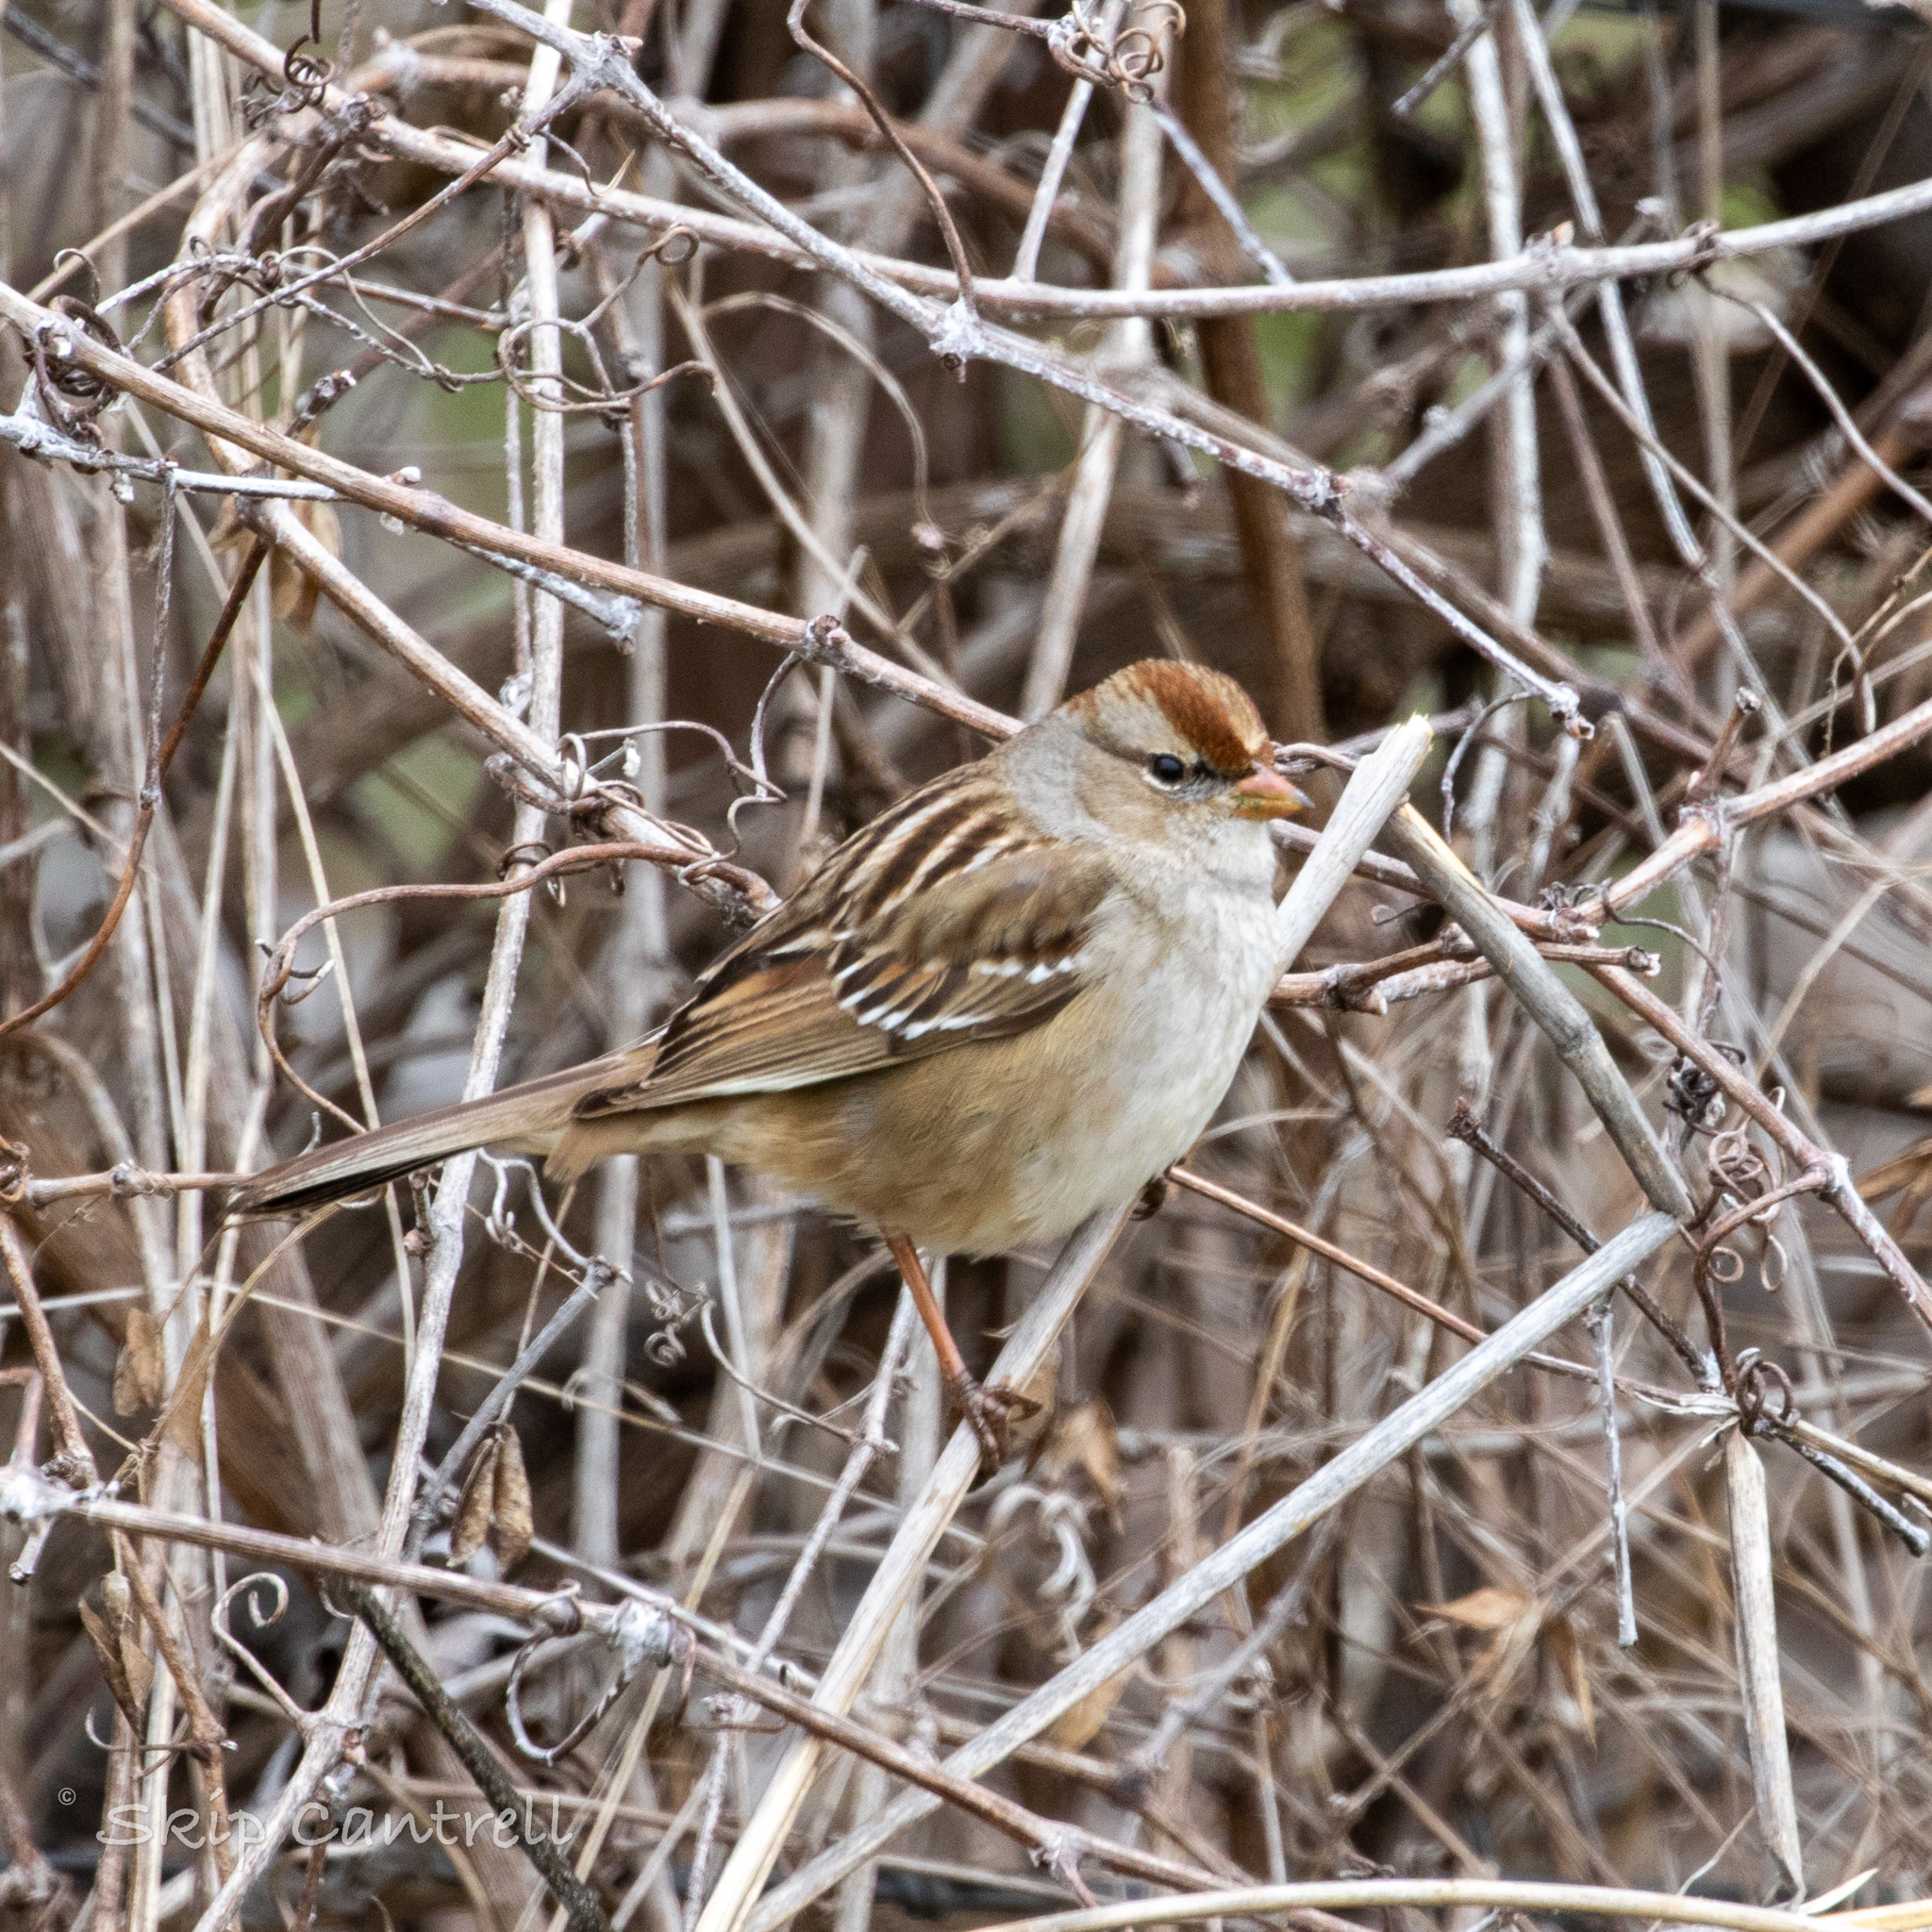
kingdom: Animalia
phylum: Chordata
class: Aves
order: Passeriformes
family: Passerellidae
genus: Zonotrichia
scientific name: Zonotrichia leucophrys
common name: White-crowned sparrow
